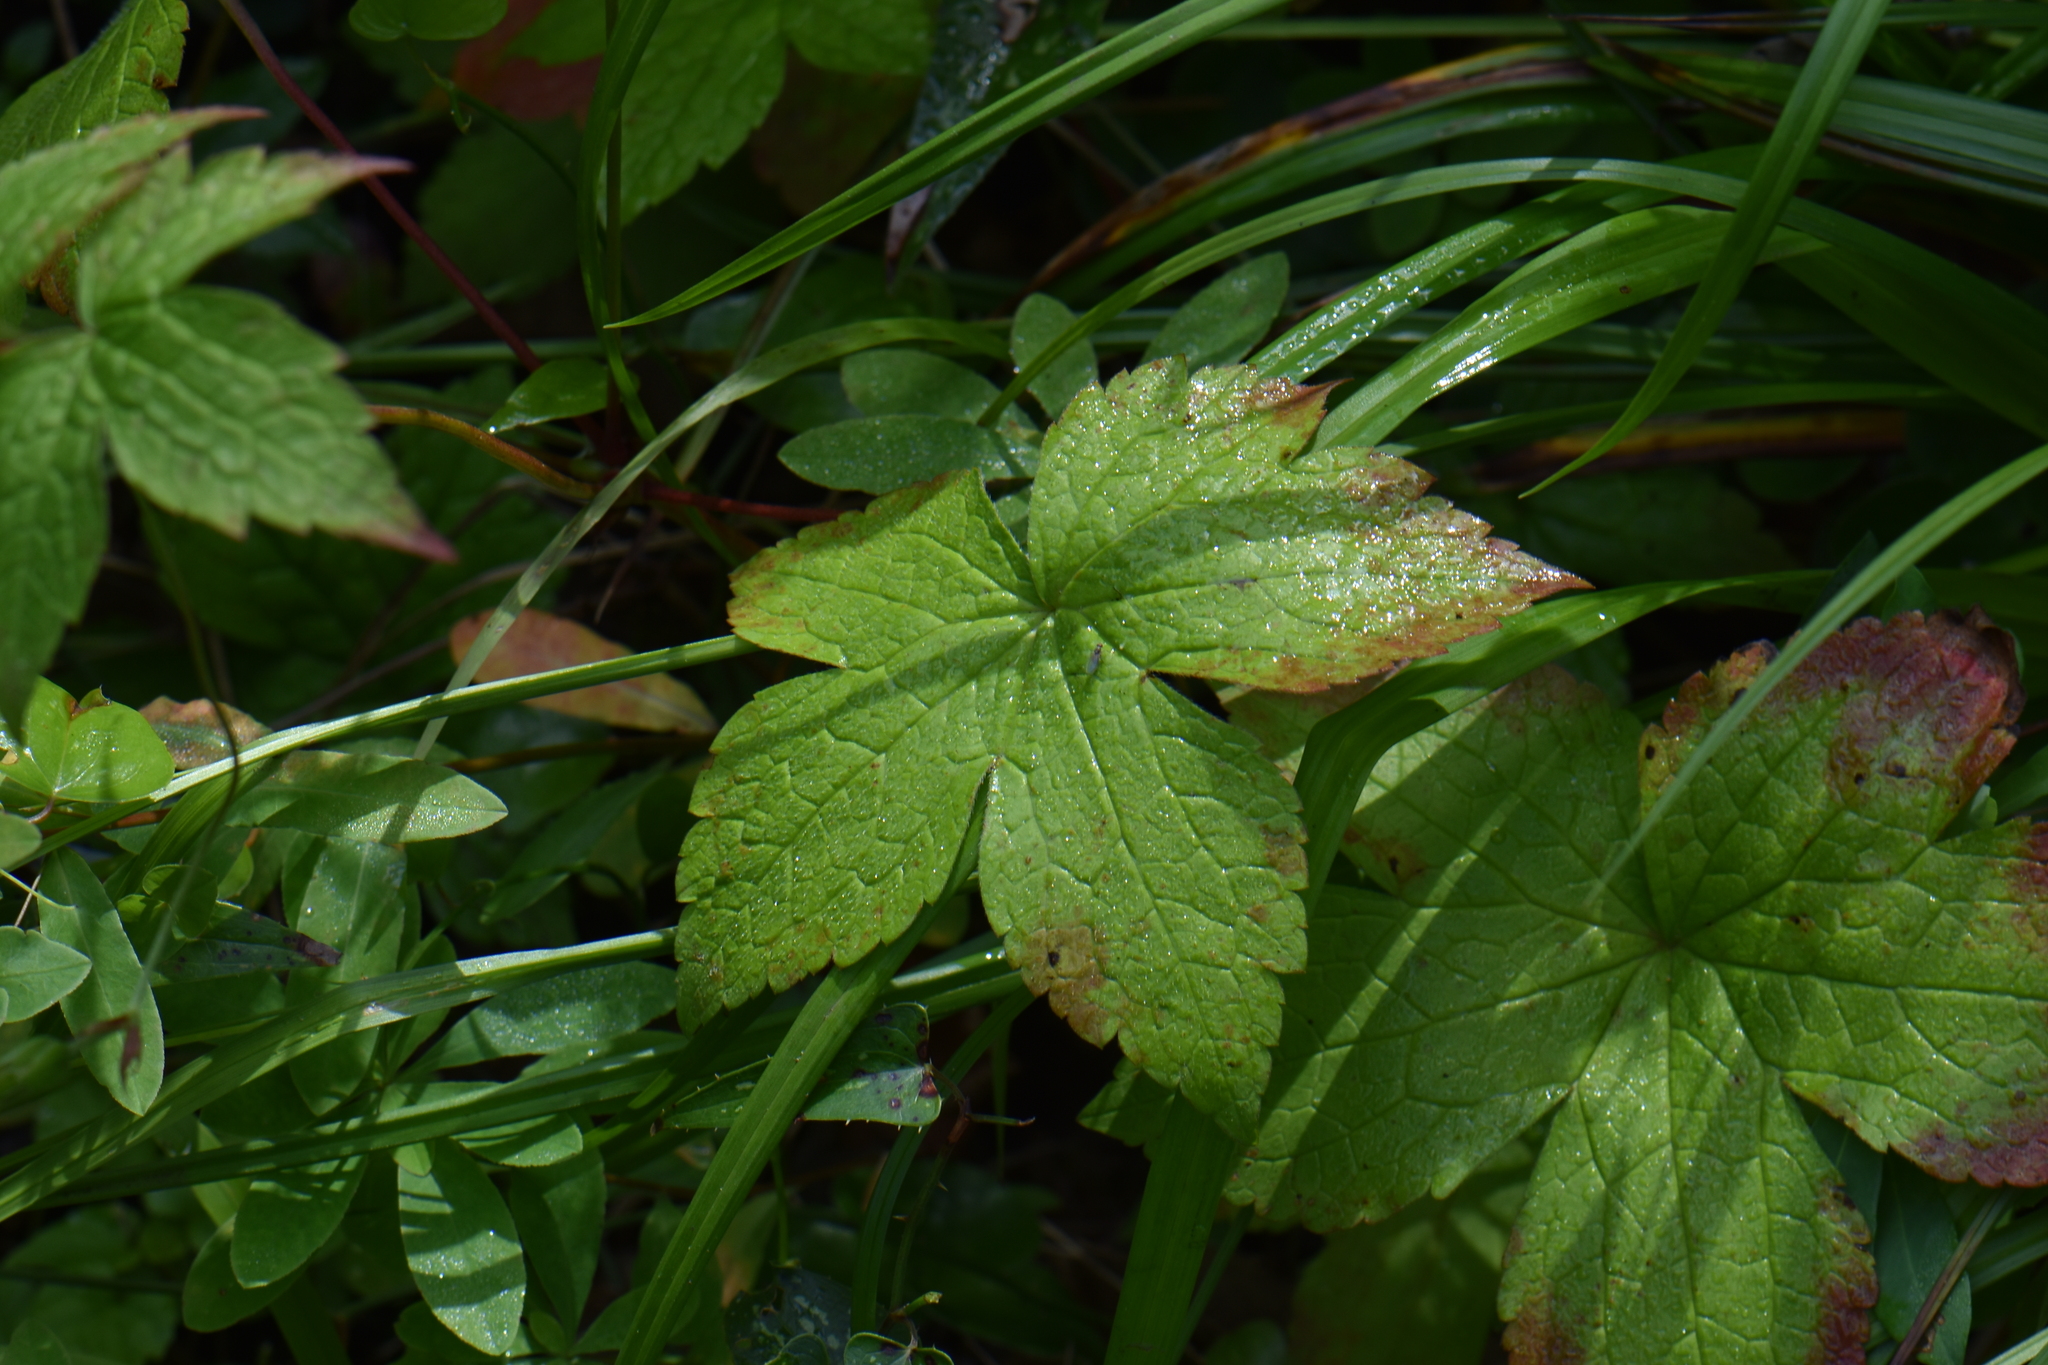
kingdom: Plantae
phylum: Tracheophyta
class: Magnoliopsida
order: Geraniales
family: Geraniaceae
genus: Geranium
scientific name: Geranium nodosum
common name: Knotted crane's-bill
